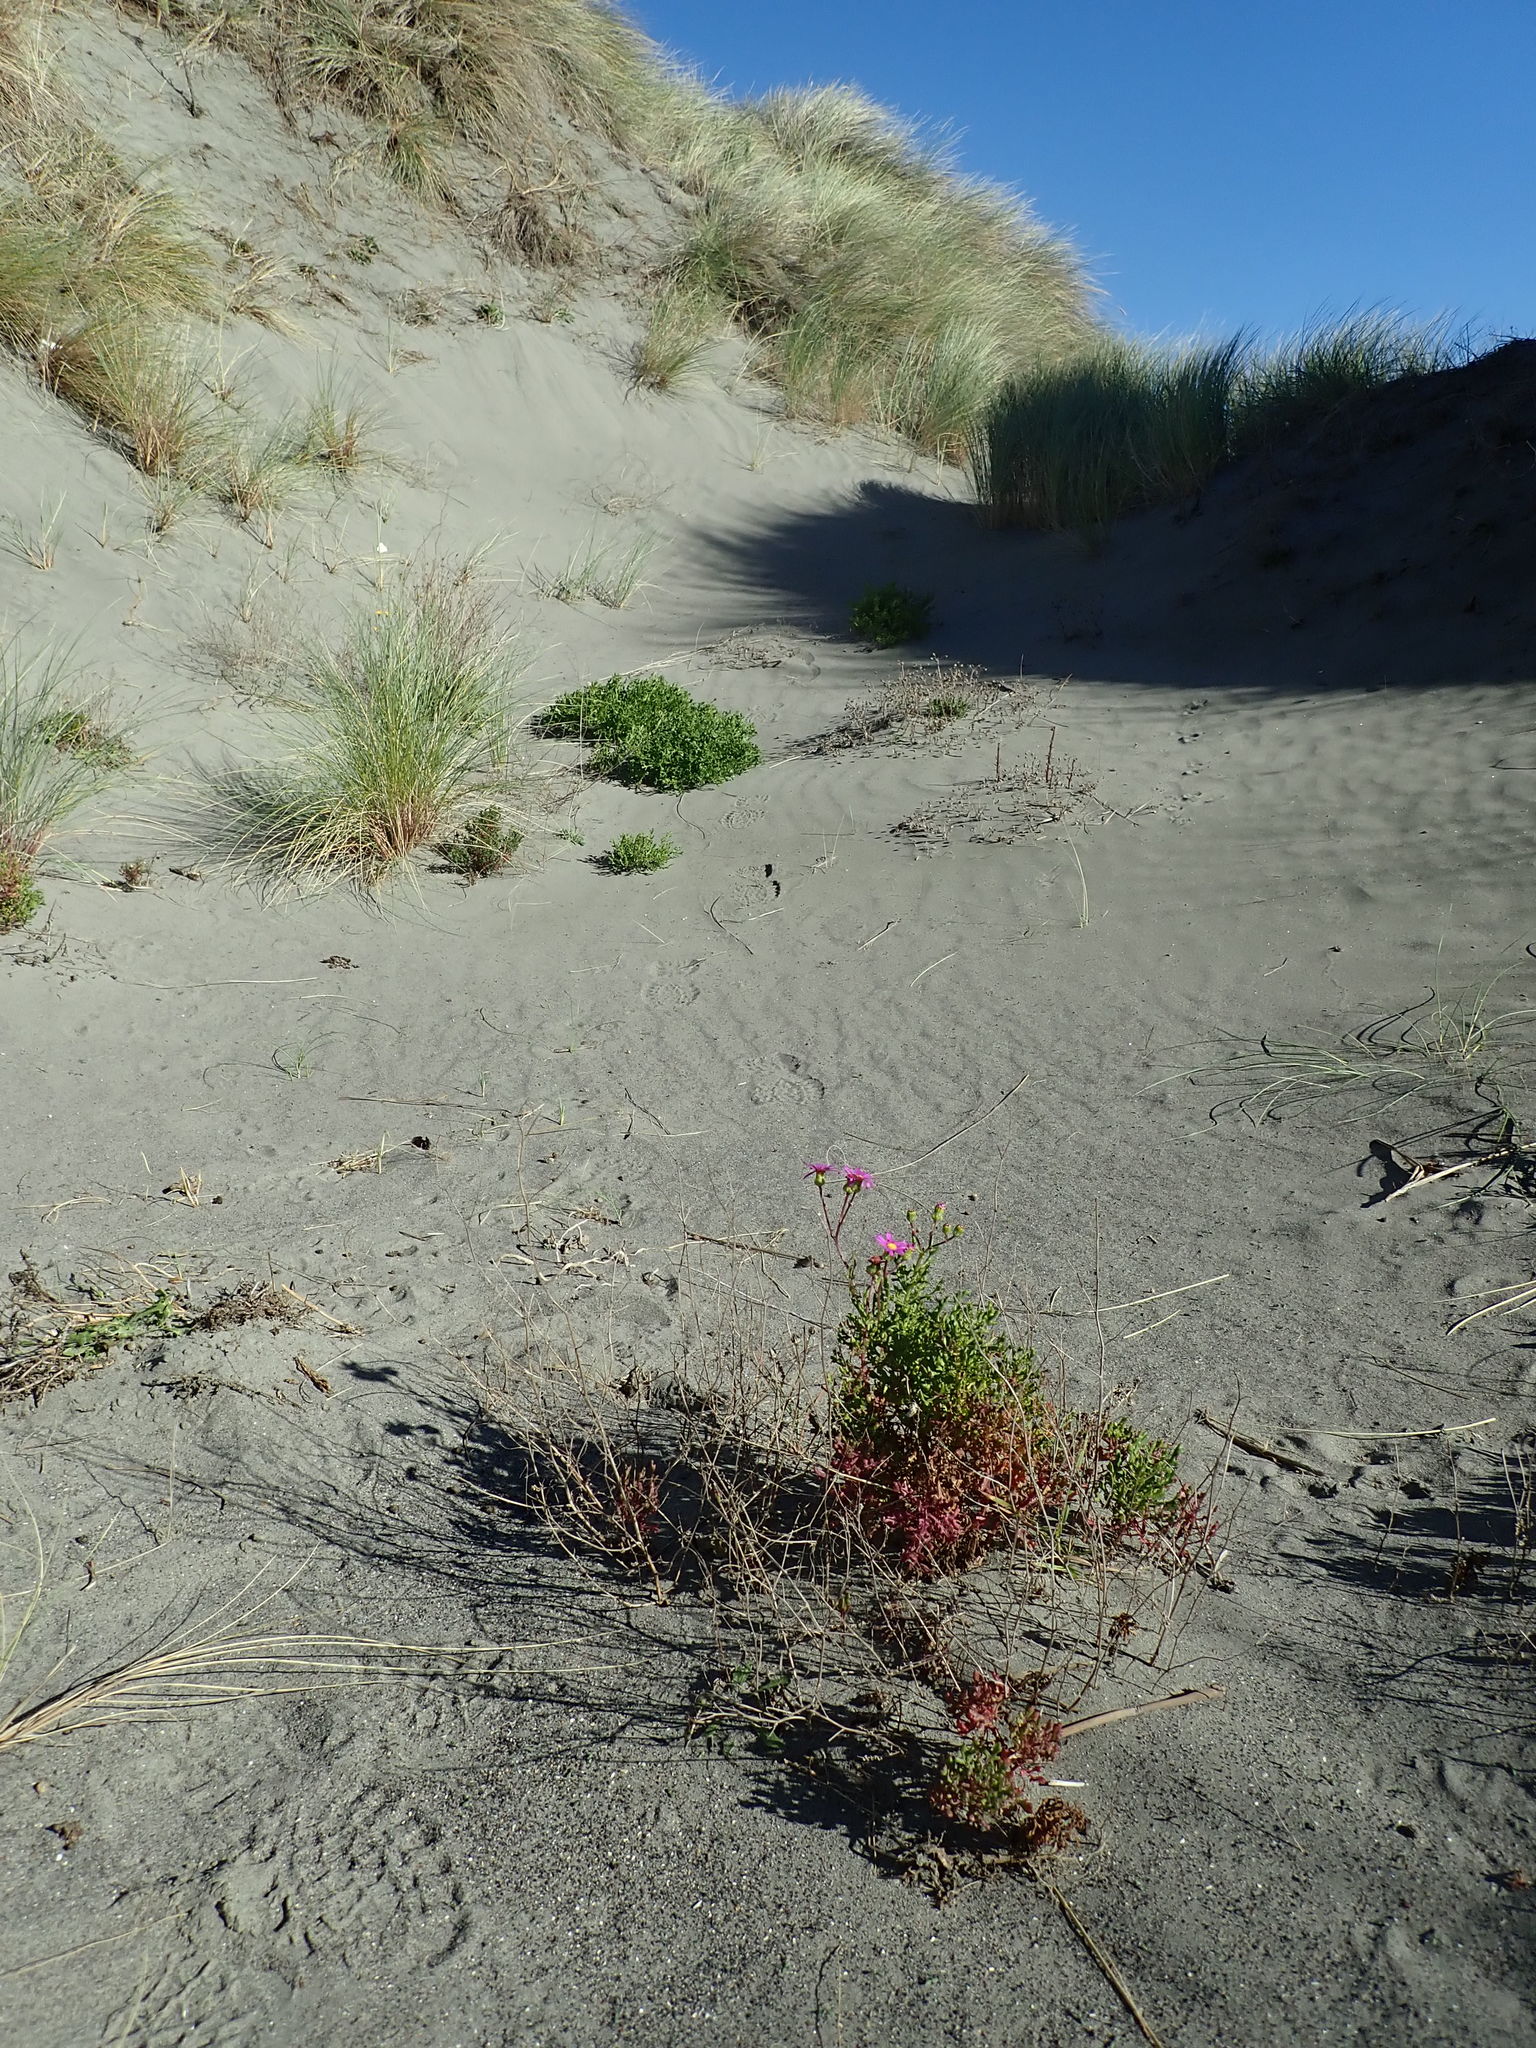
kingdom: Plantae
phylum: Tracheophyta
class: Magnoliopsida
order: Asterales
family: Asteraceae
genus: Senecio
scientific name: Senecio elegans
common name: Purple groundsel
